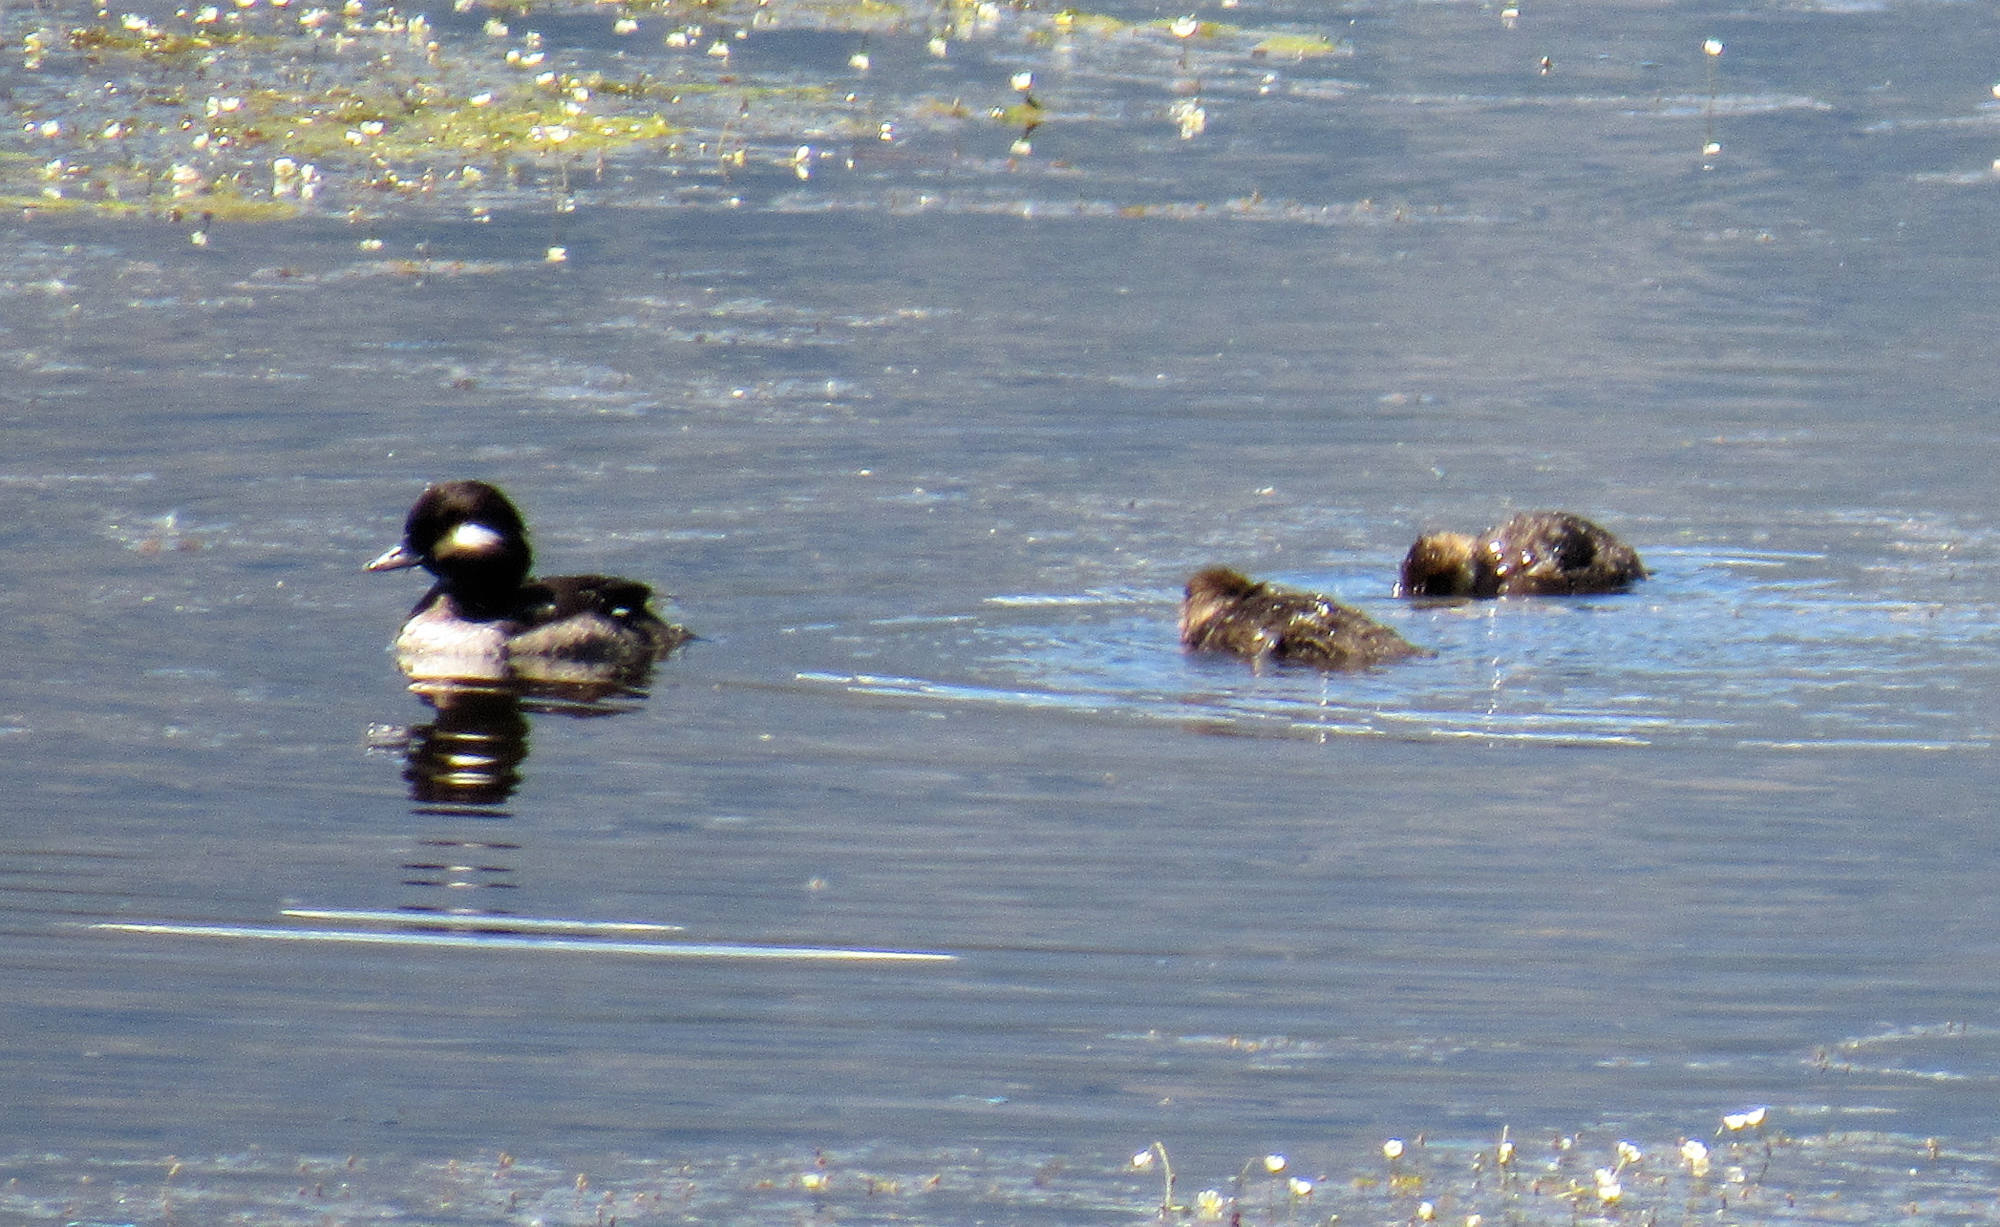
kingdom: Animalia
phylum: Chordata
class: Aves
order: Anseriformes
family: Anatidae
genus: Bucephala
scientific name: Bucephala albeola
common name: Bufflehead
